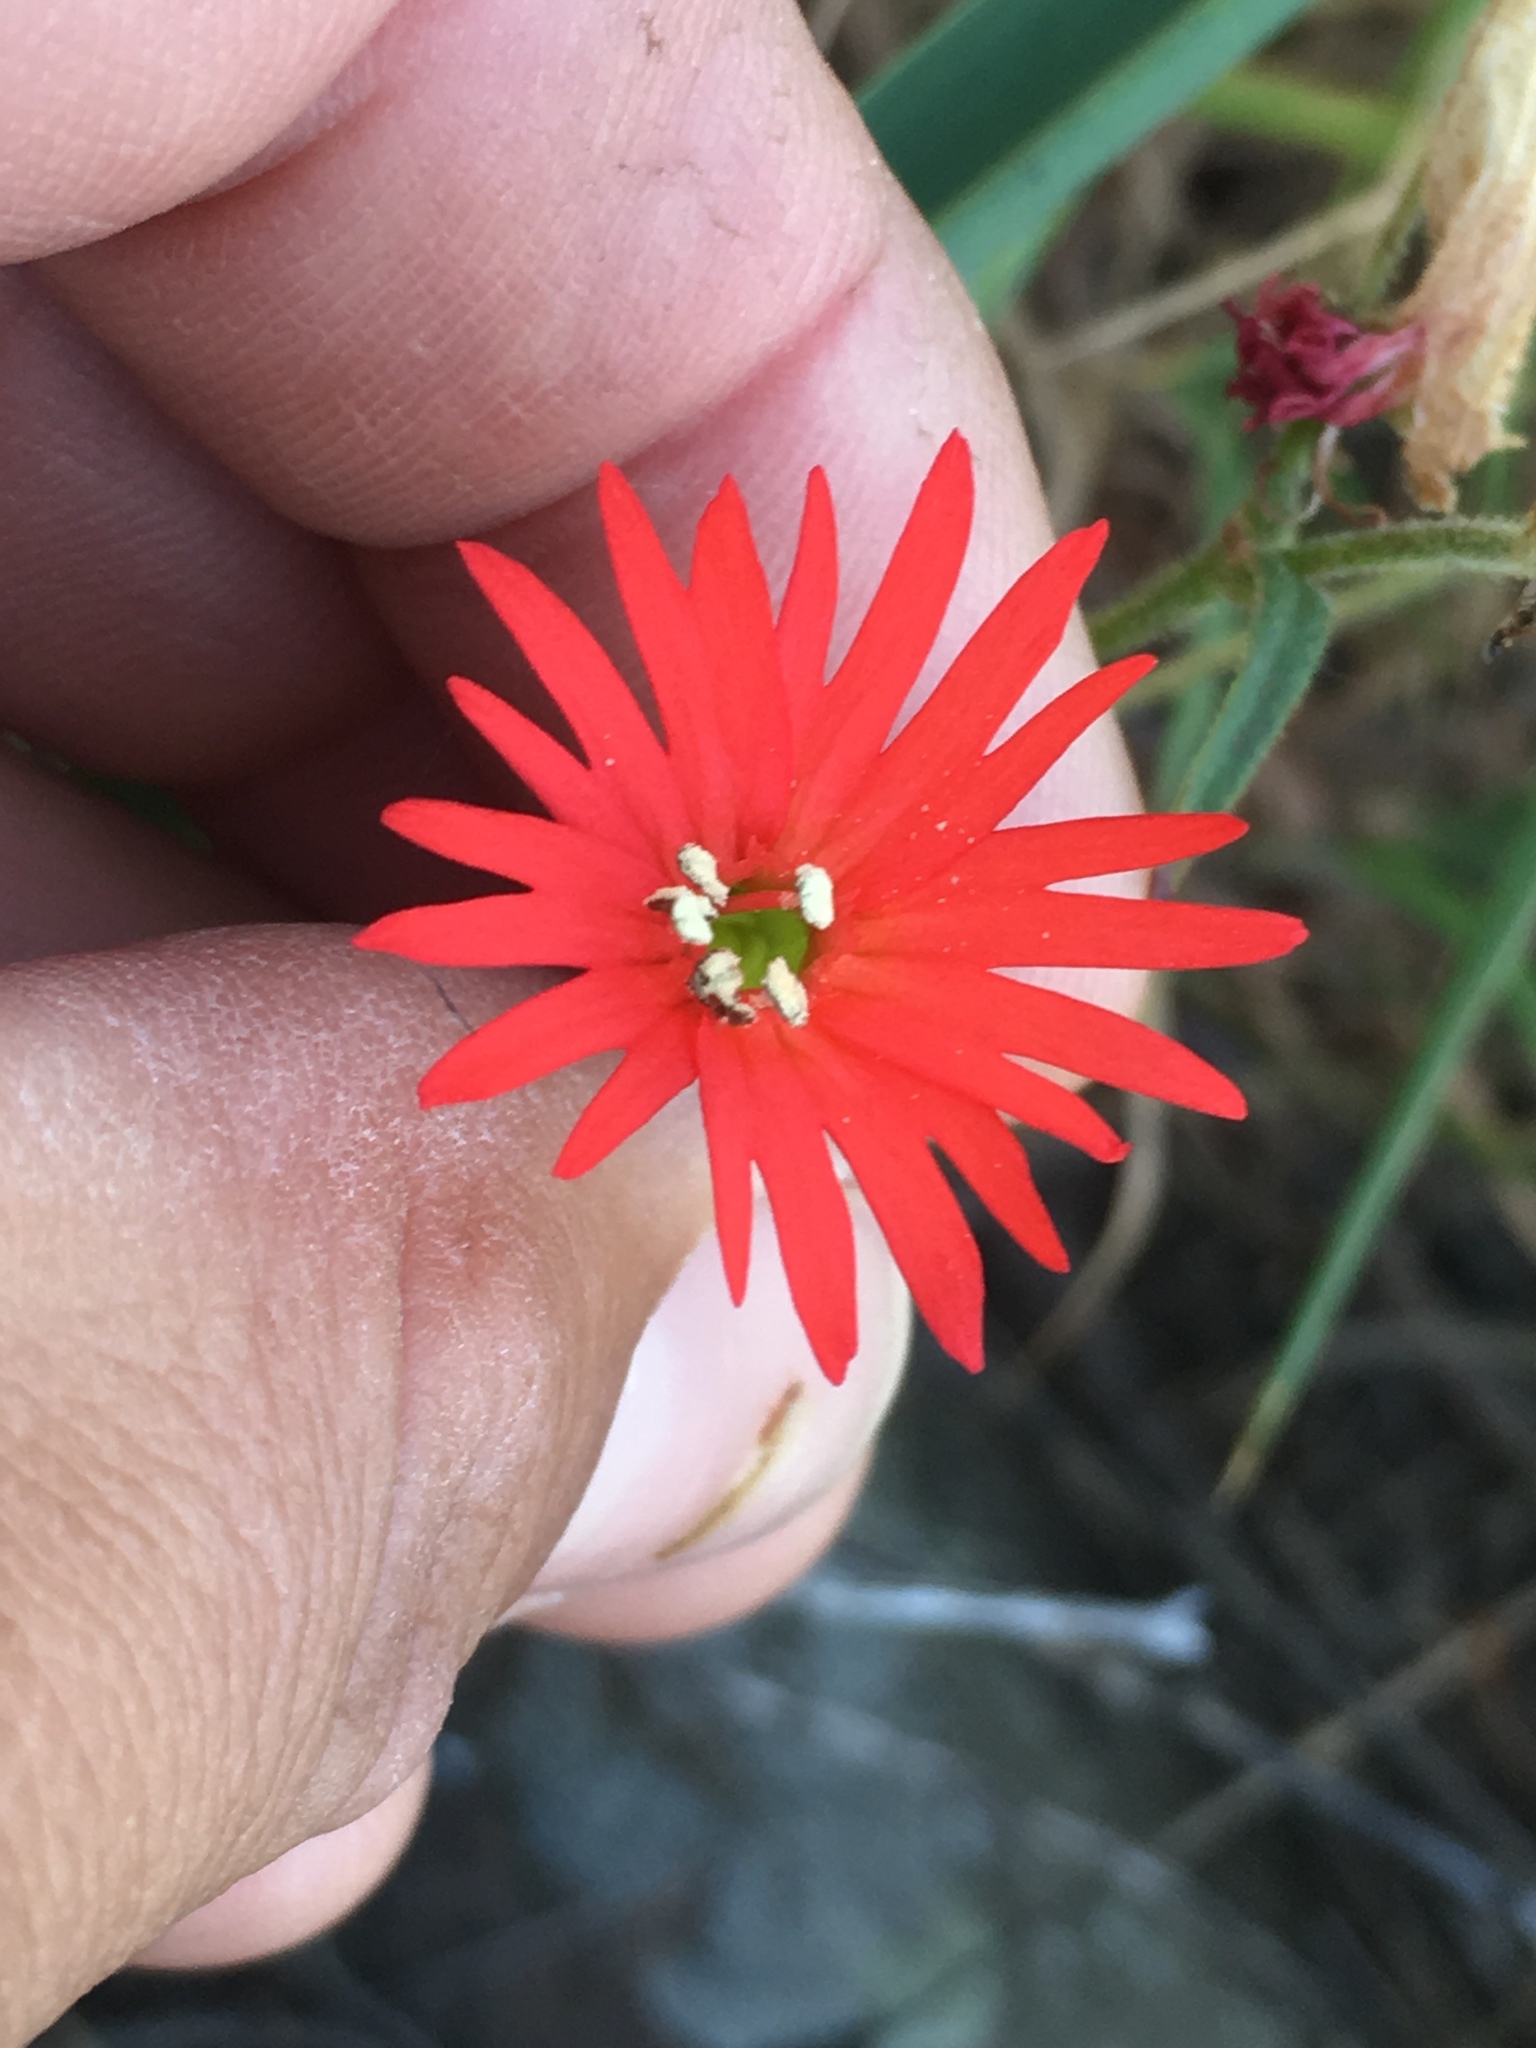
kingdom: Plantae
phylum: Tracheophyta
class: Magnoliopsida
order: Caryophyllales
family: Caryophyllaceae
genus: Silene
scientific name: Silene laciniata
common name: Indian-pink
